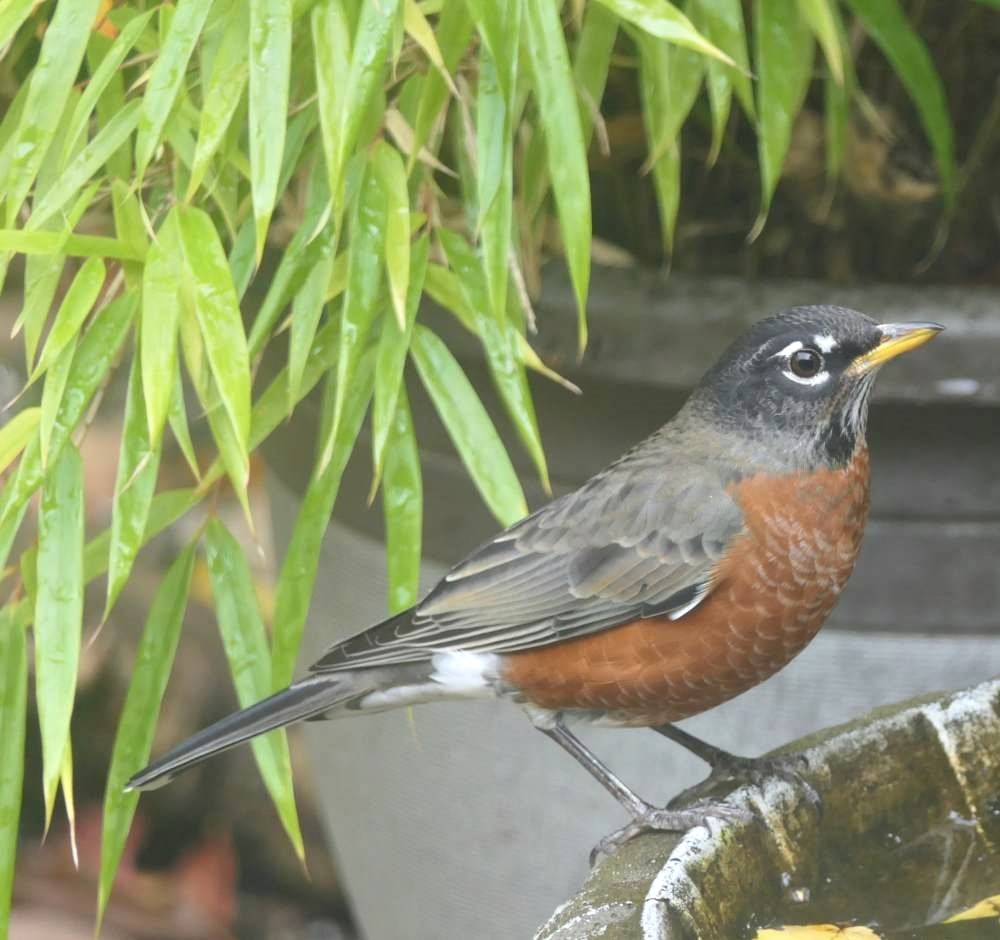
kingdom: Animalia
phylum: Chordata
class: Aves
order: Passeriformes
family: Turdidae
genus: Turdus
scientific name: Turdus migratorius
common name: American robin
